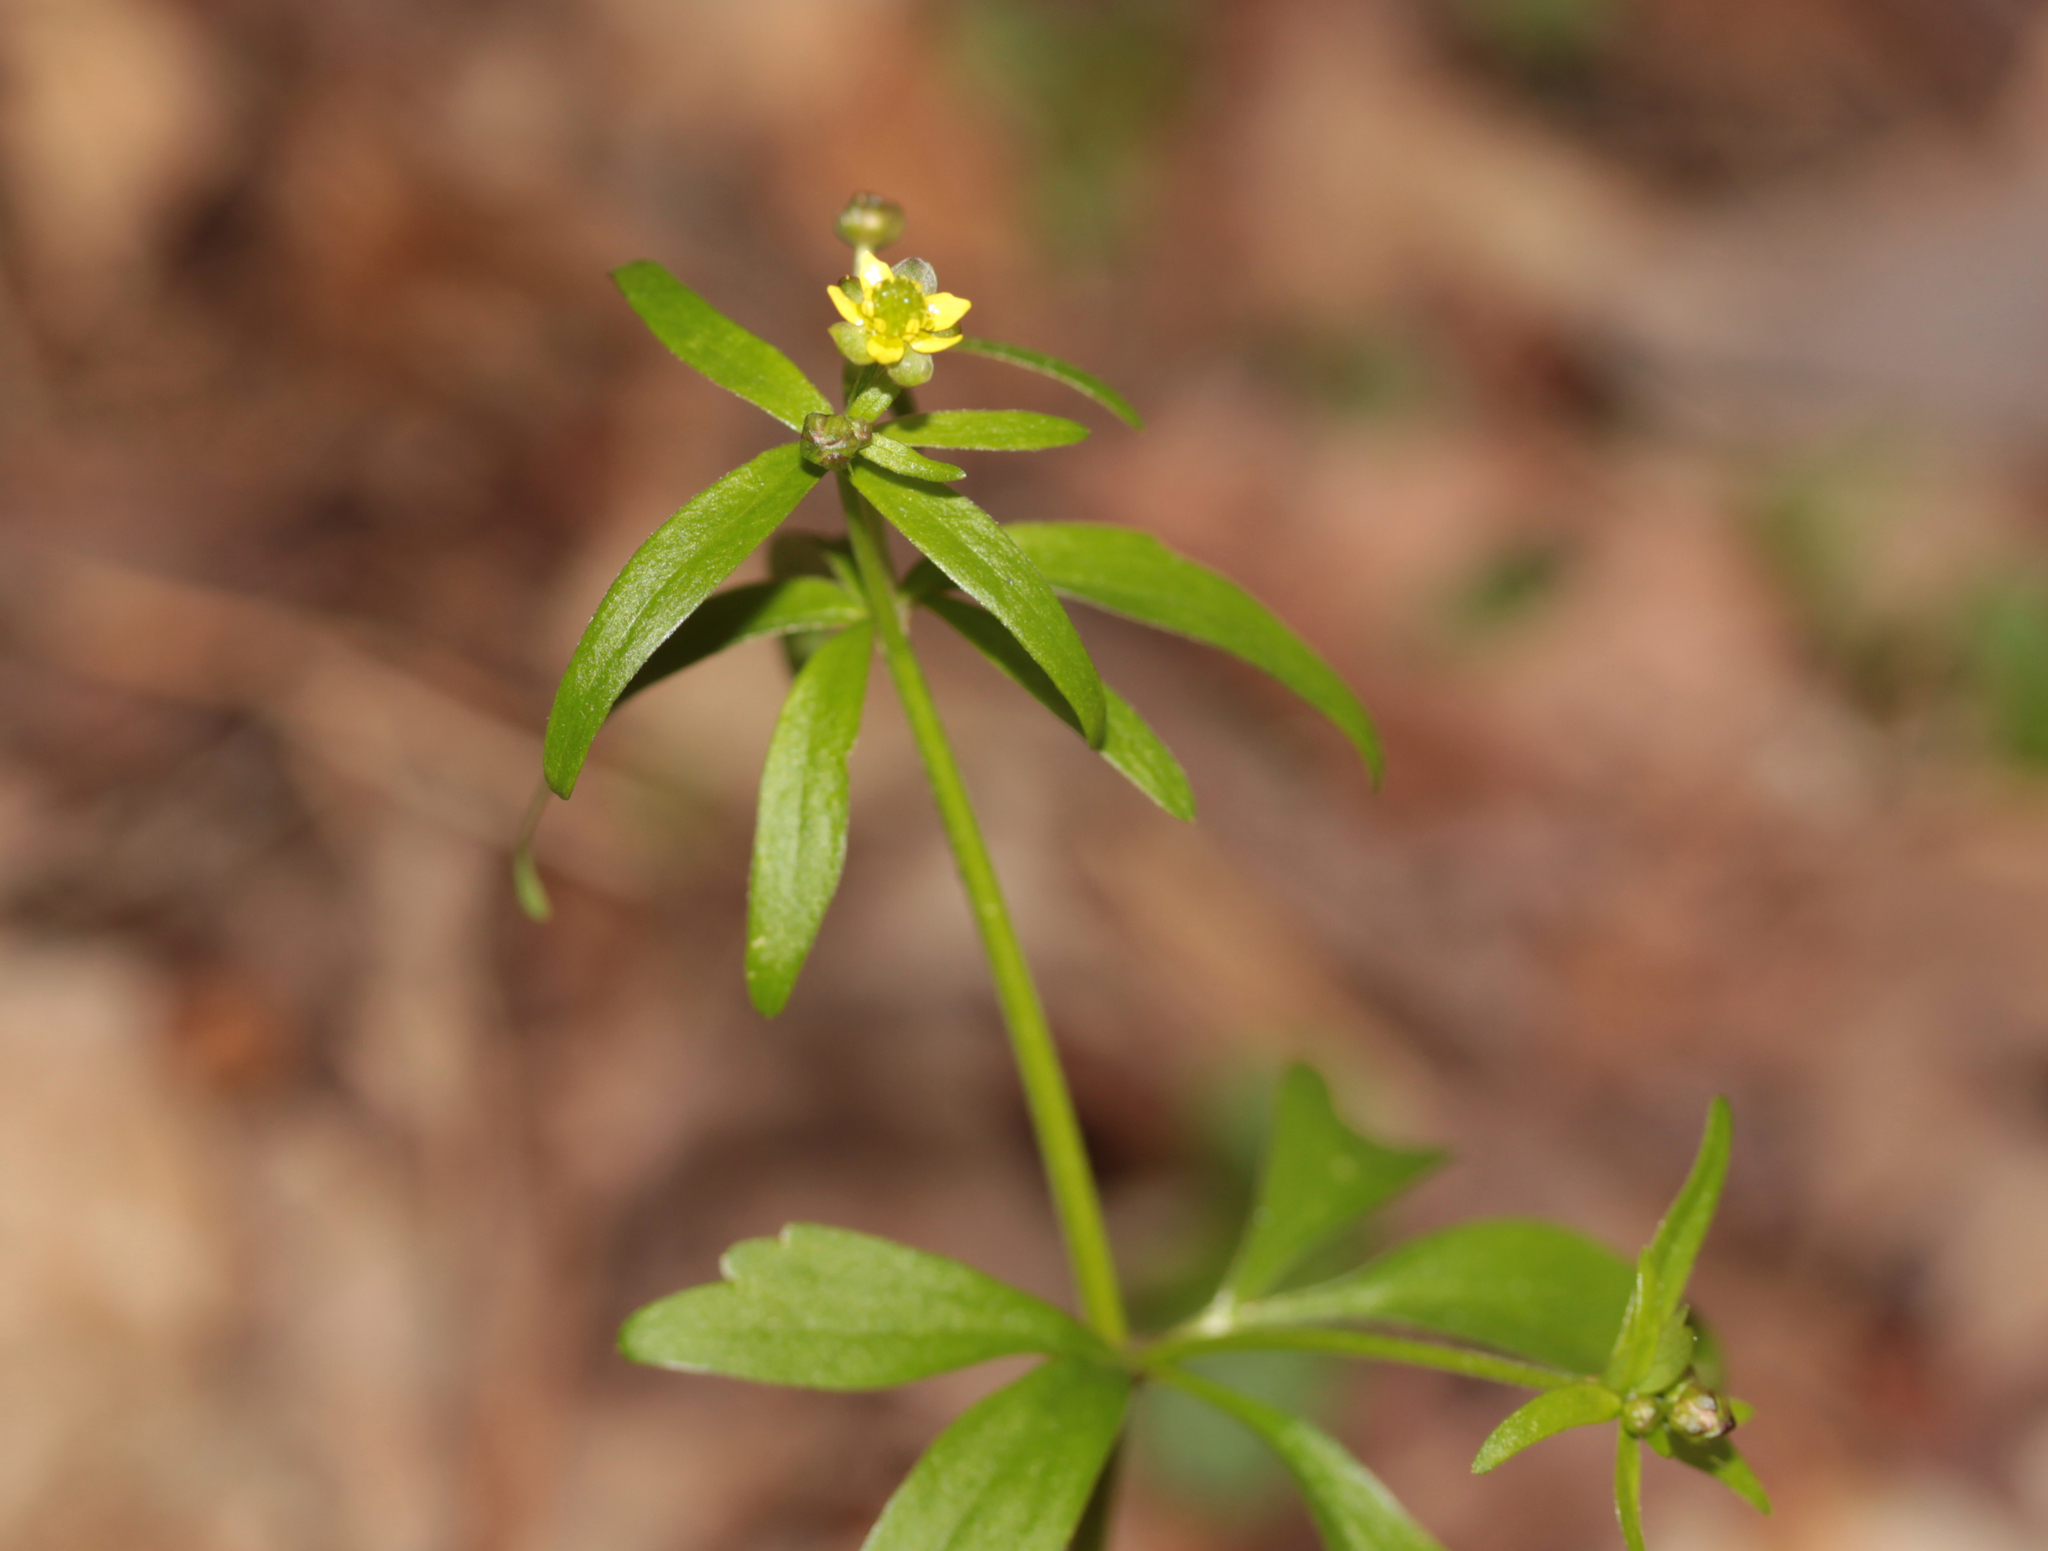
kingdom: Plantae
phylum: Tracheophyta
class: Magnoliopsida
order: Ranunculales
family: Ranunculaceae
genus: Ranunculus
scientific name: Ranunculus abortivus
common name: Early wood buttercup
